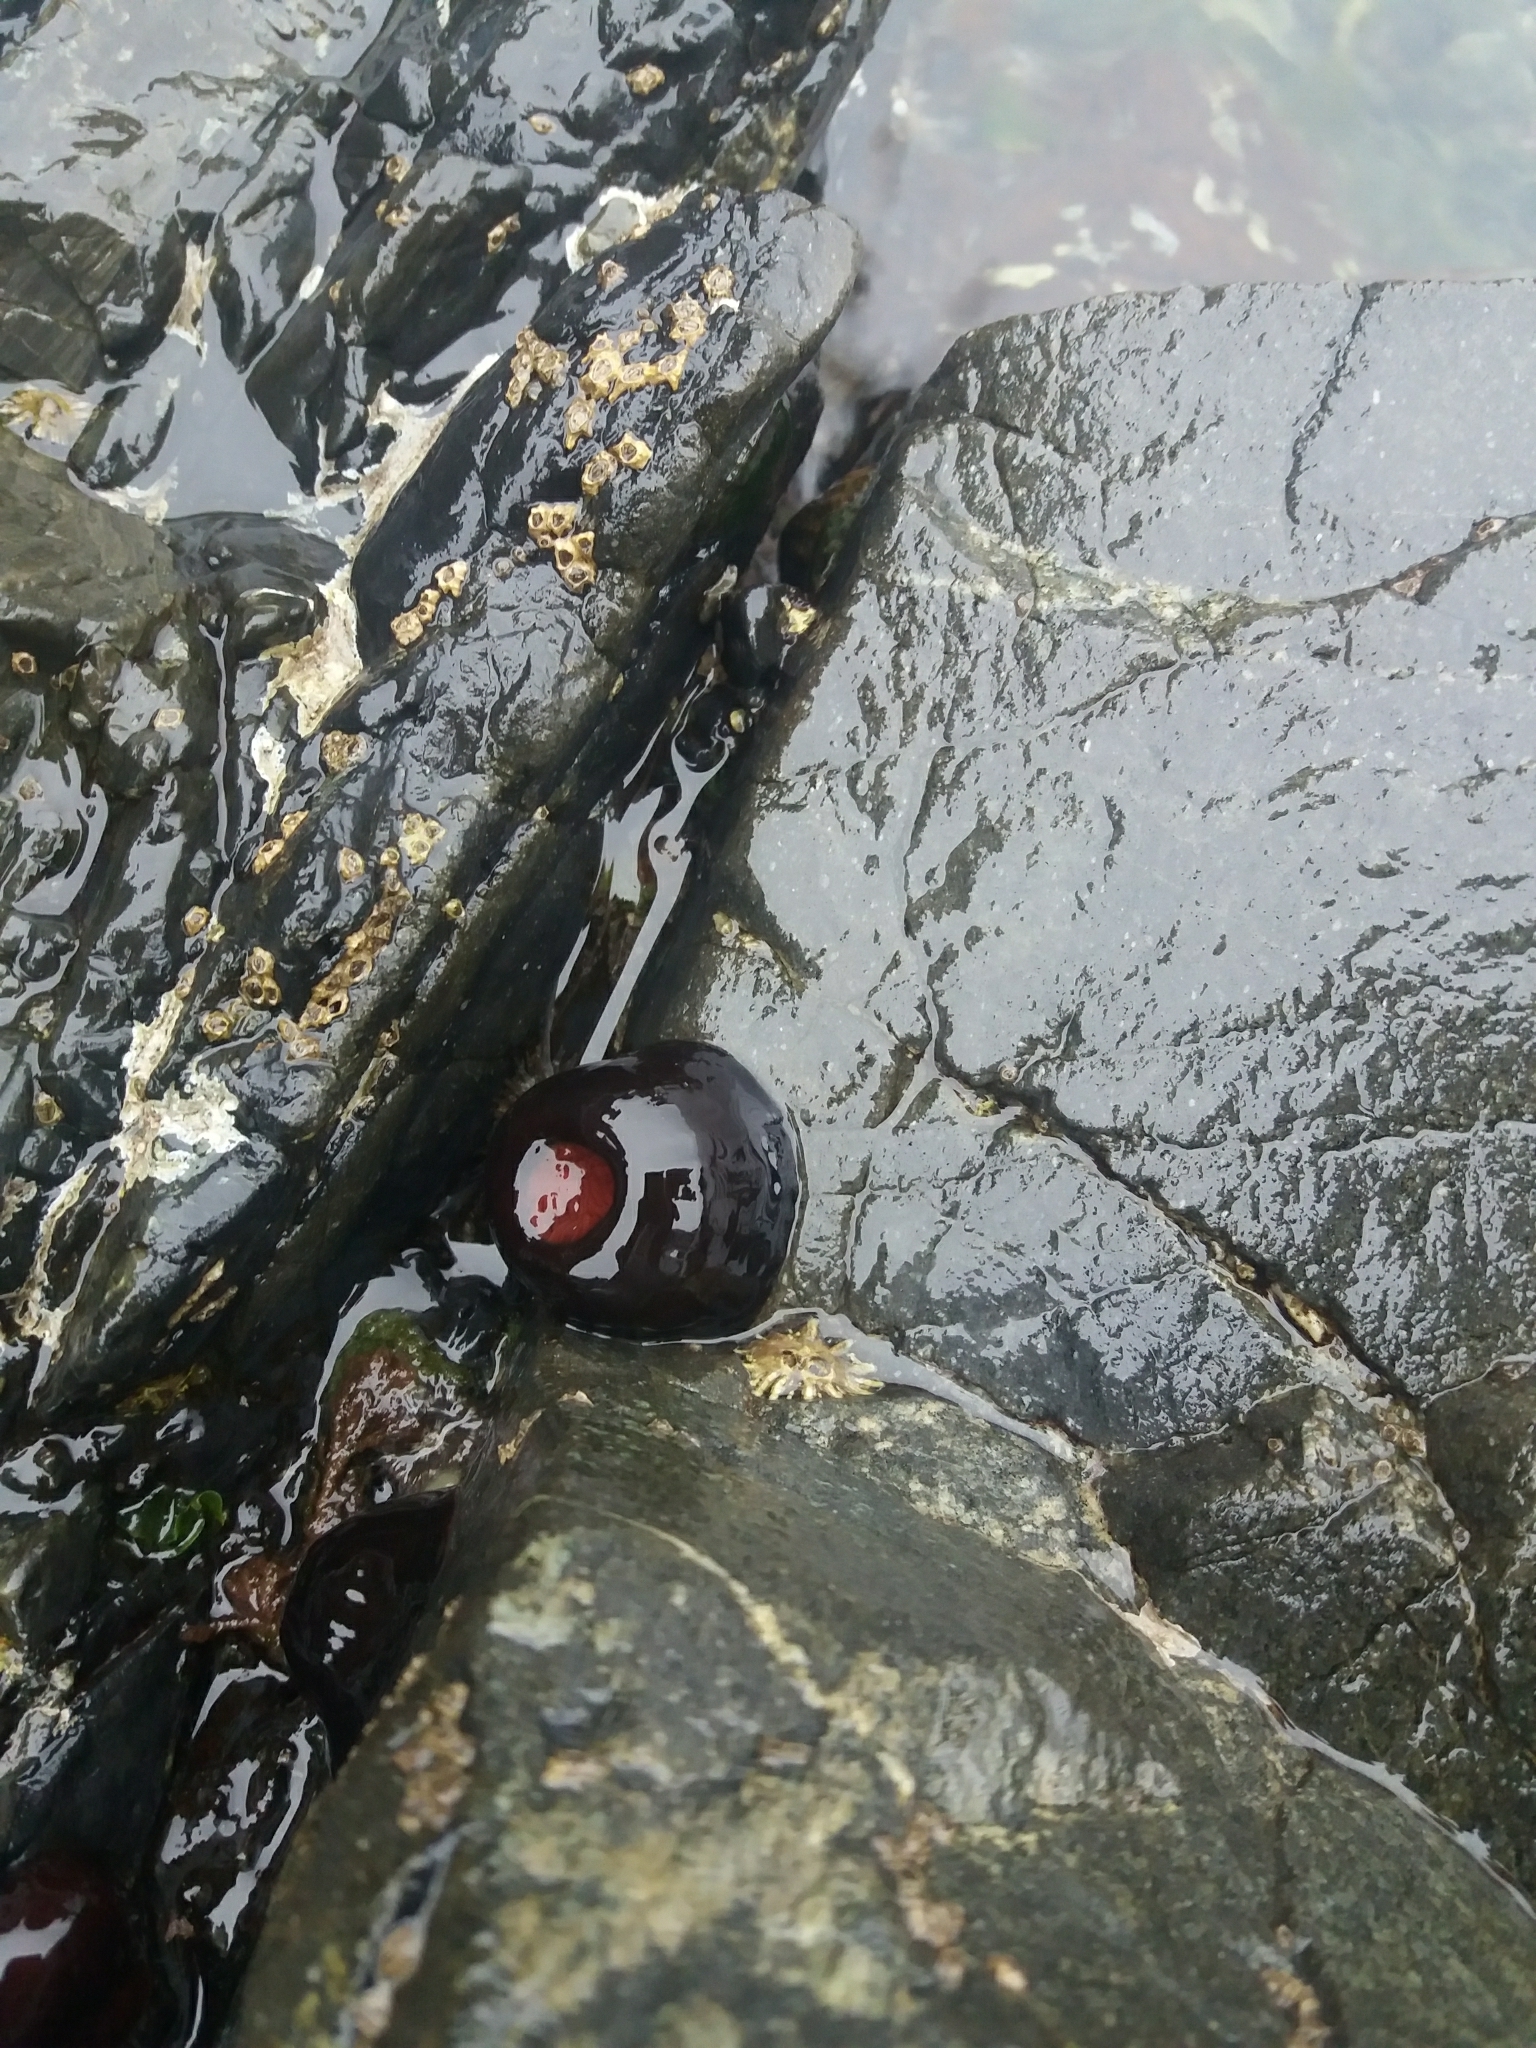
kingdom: Animalia
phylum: Cnidaria
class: Anthozoa
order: Actiniaria
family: Actiniidae
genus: Actinia
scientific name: Actinia tenebrosa
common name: Waratah anemone
